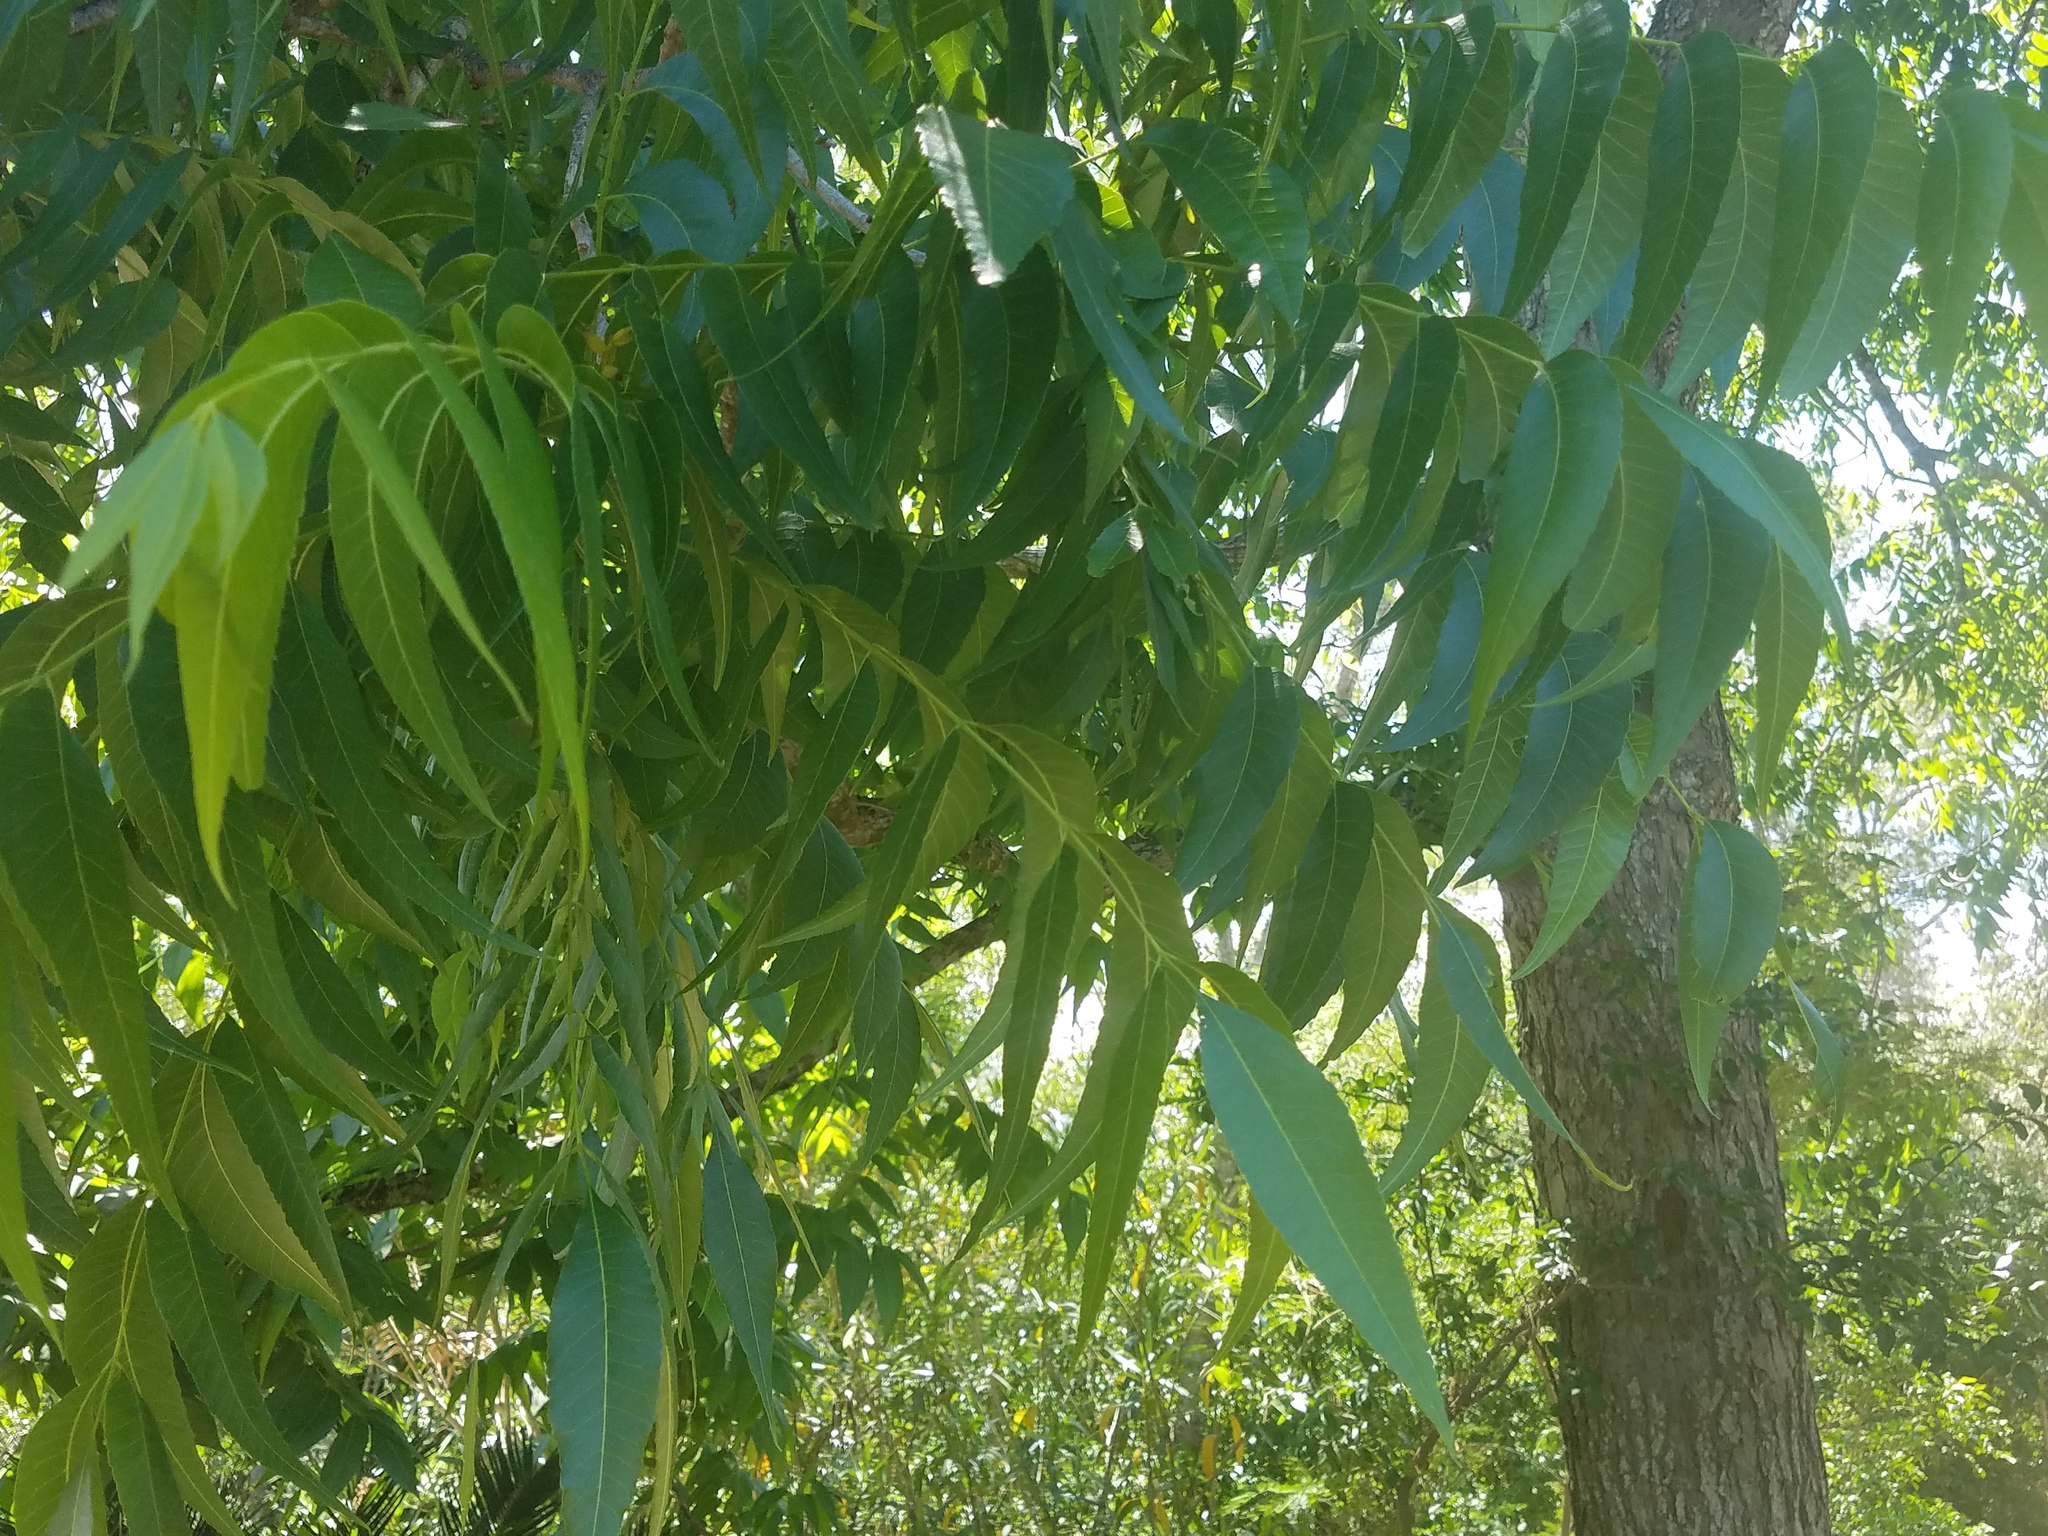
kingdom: Plantae
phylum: Tracheophyta
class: Magnoliopsida
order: Fagales
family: Juglandaceae
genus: Carya
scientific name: Carya illinoinensis
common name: Pecan
